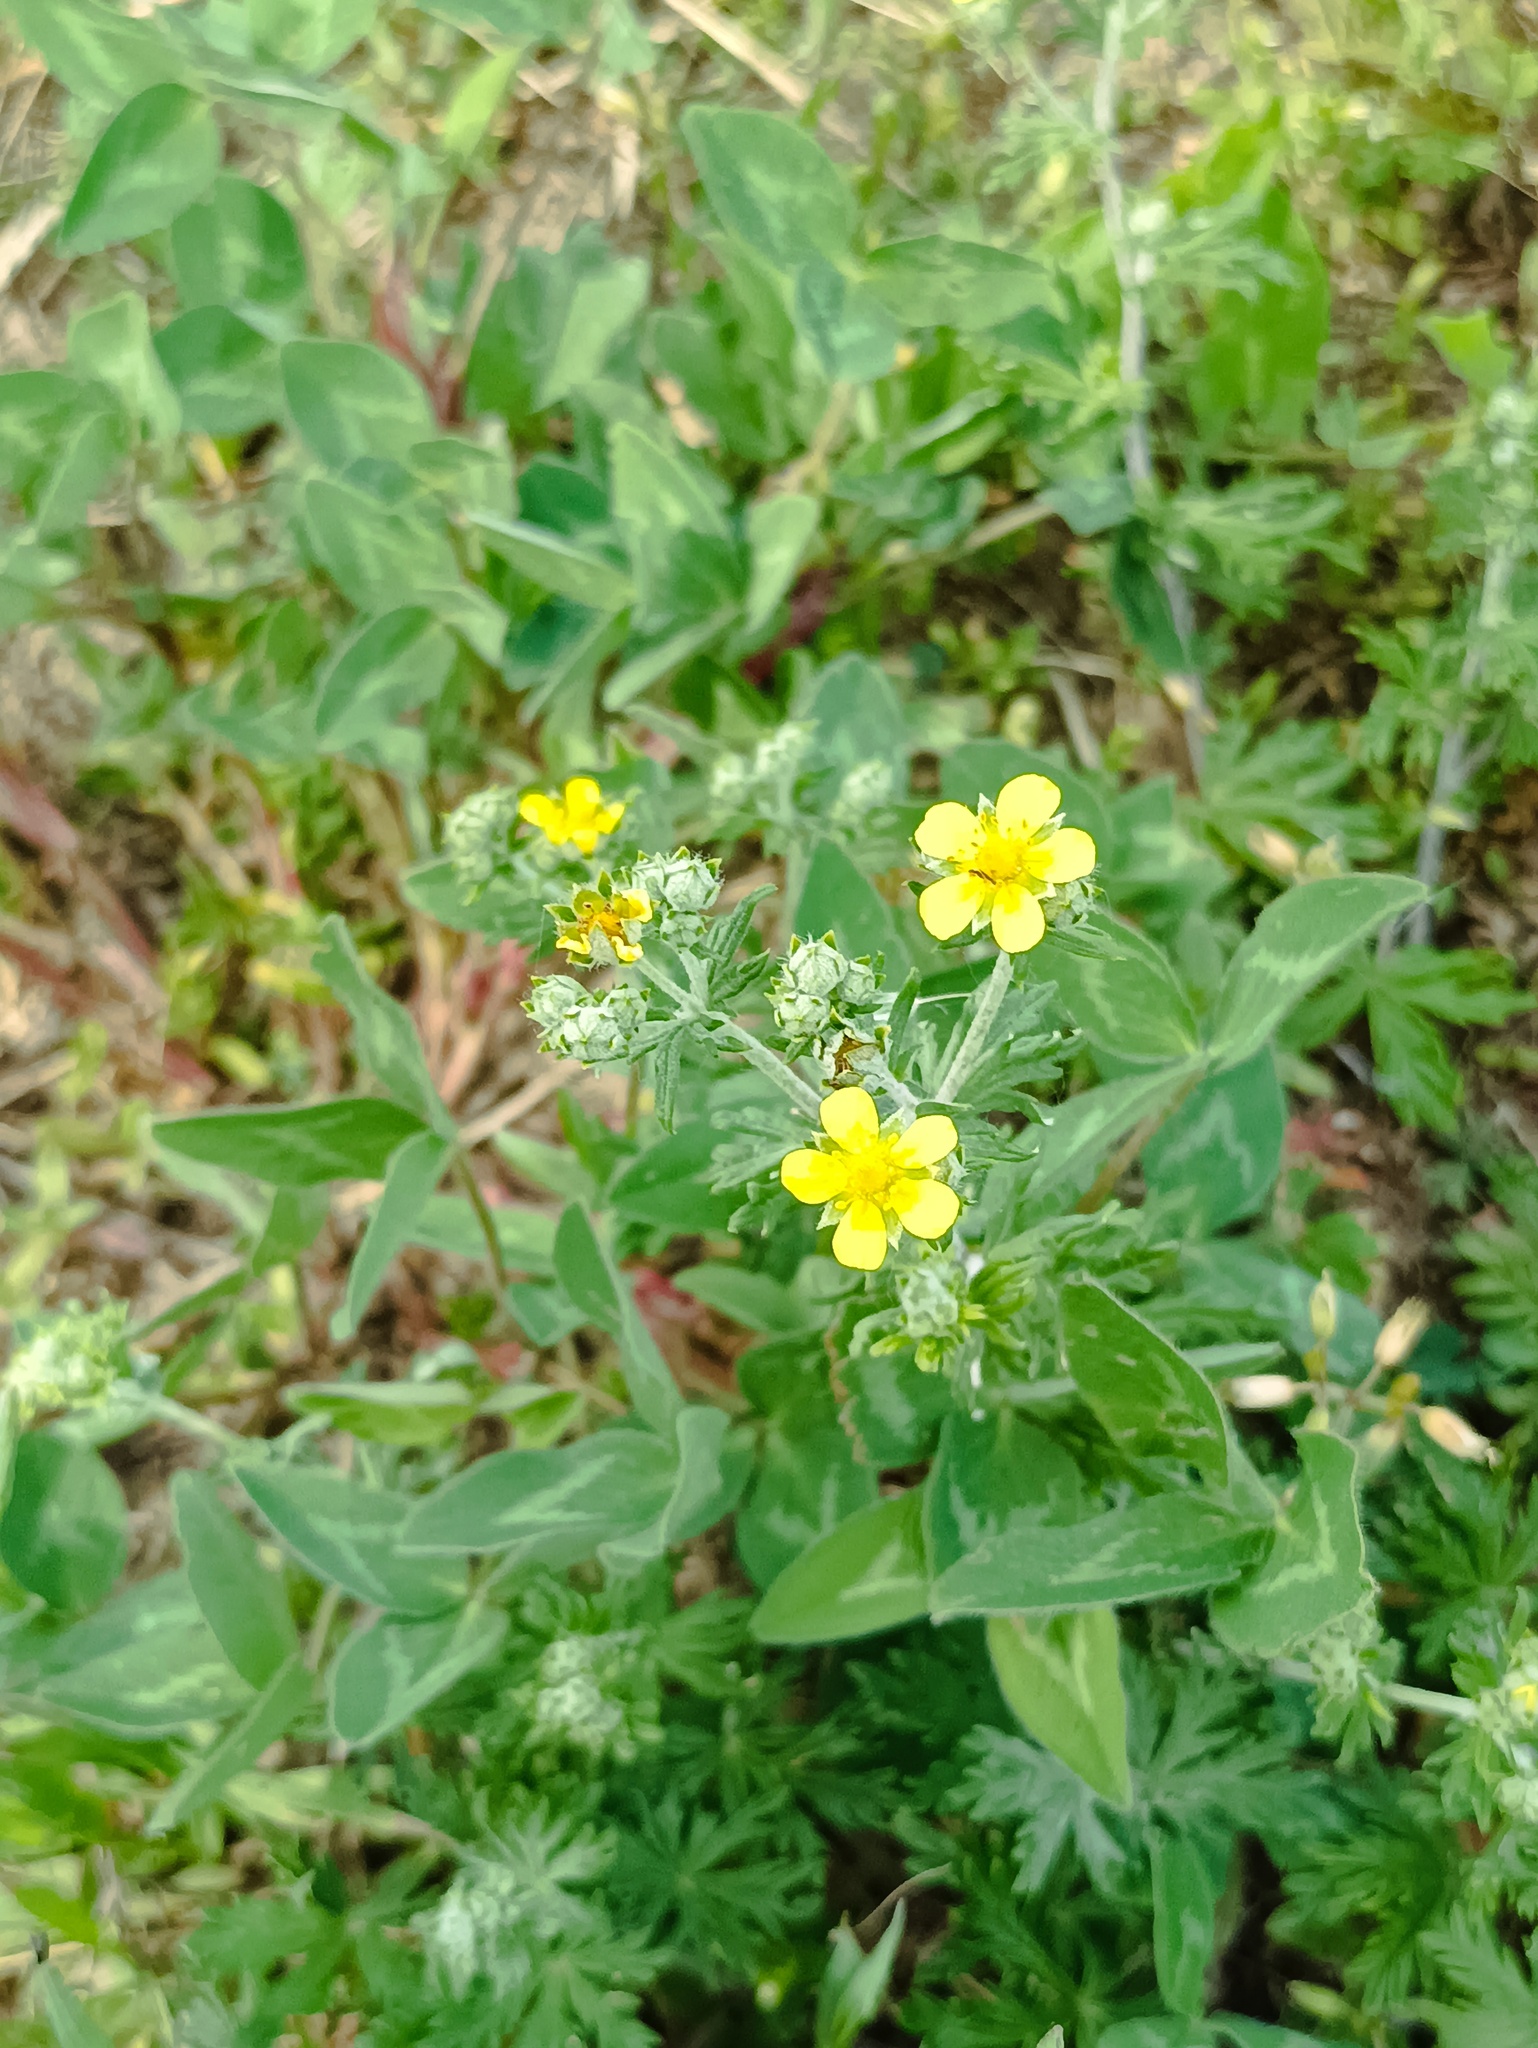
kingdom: Plantae
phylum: Tracheophyta
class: Magnoliopsida
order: Rosales
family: Rosaceae
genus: Potentilla
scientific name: Potentilla argentea
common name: Hoary cinquefoil
